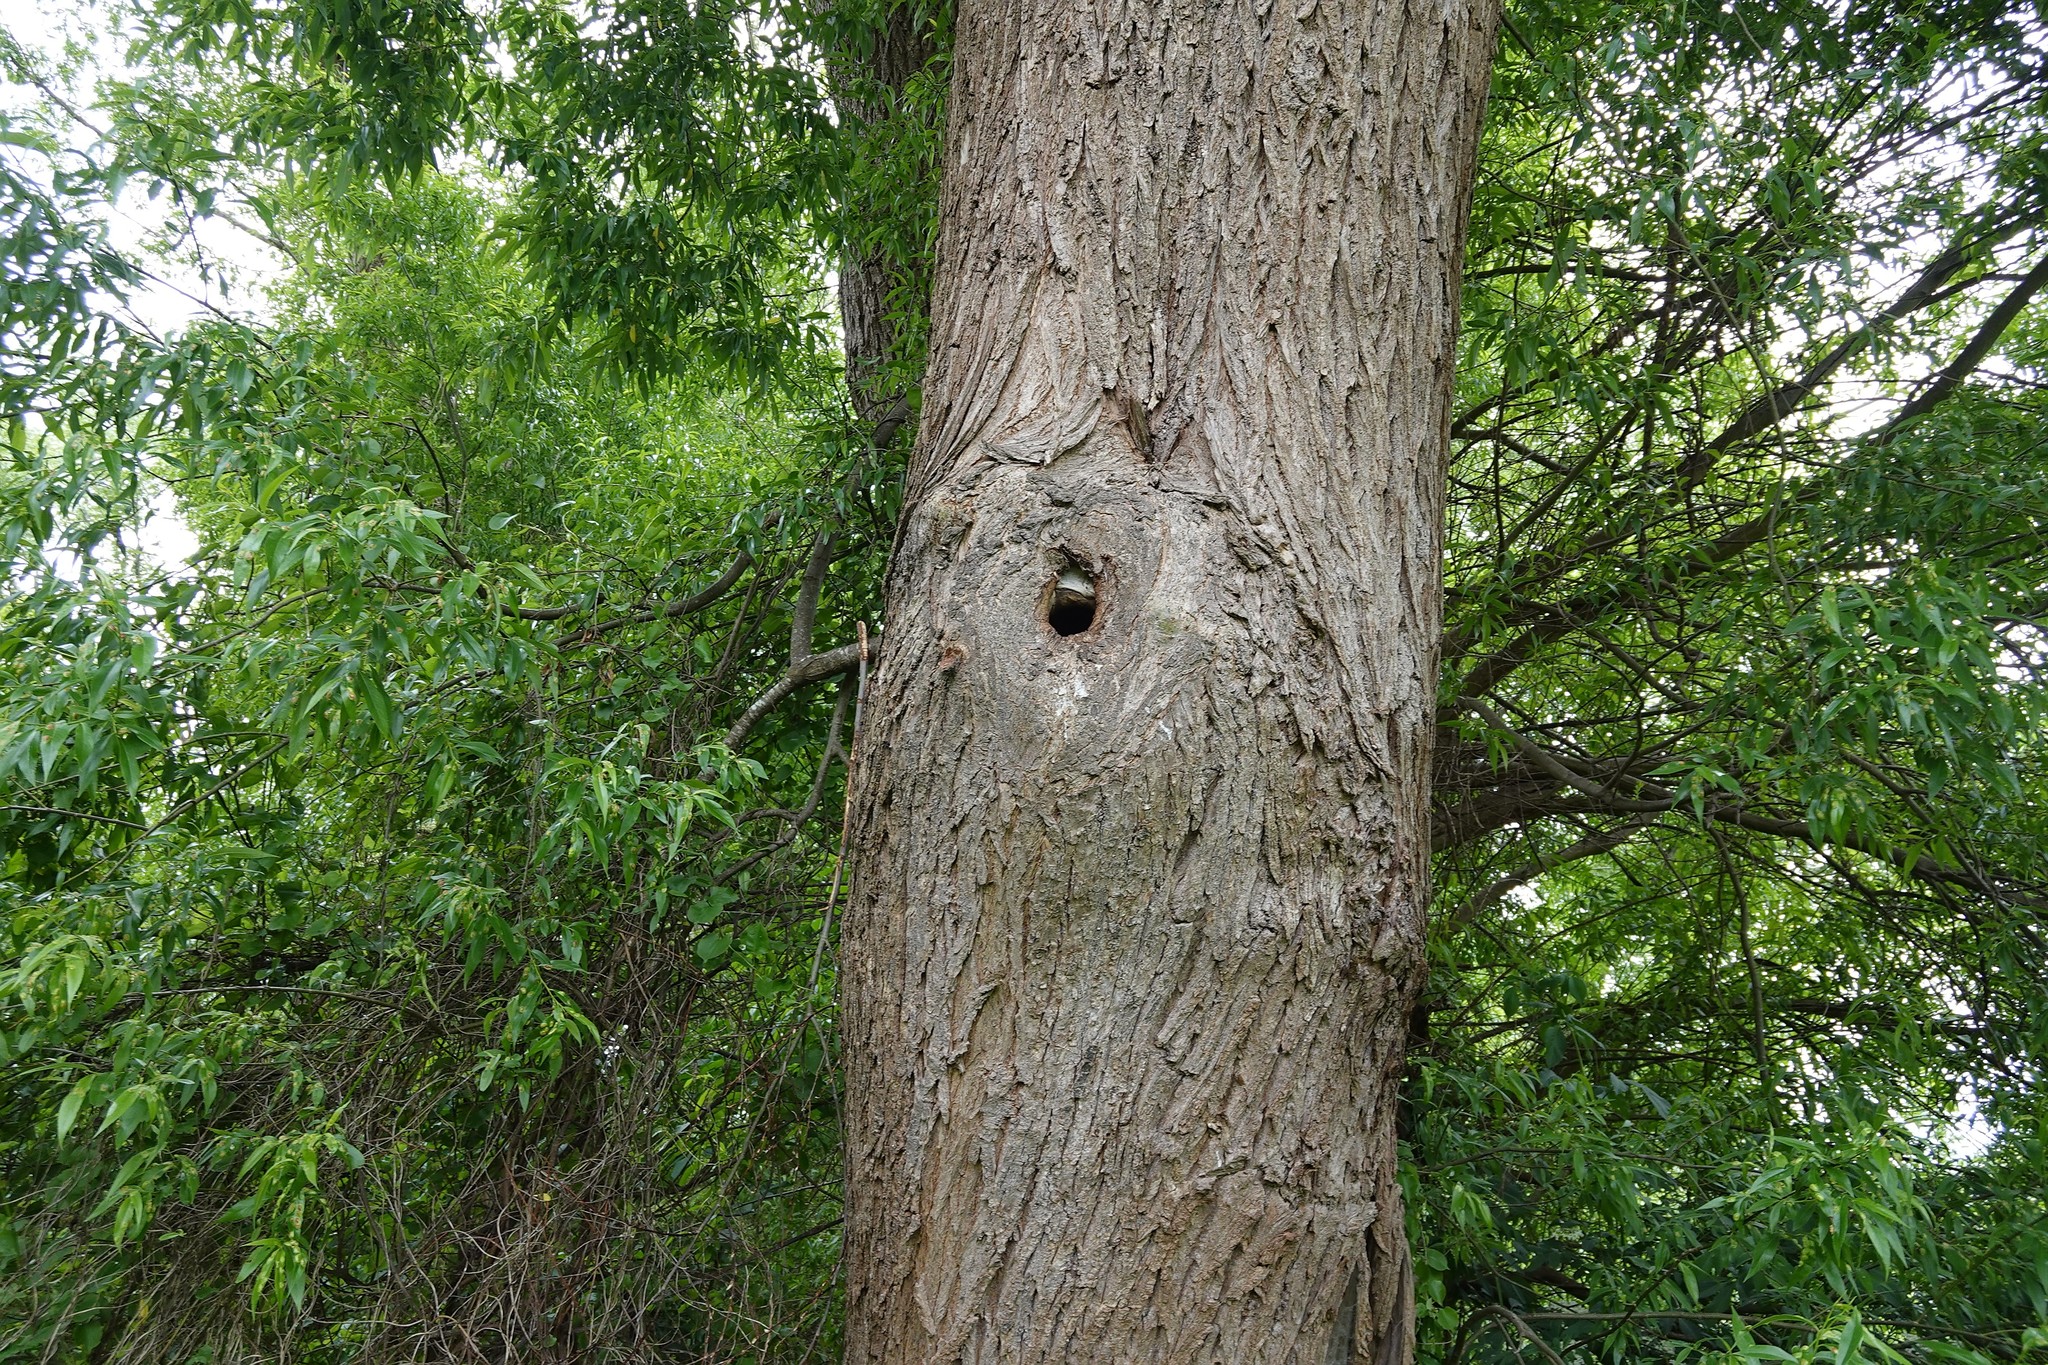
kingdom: Animalia
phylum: Chordata
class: Aves
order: Coraciiformes
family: Alcedinidae
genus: Todiramphus
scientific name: Todiramphus sanctus
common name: Sacred kingfisher
